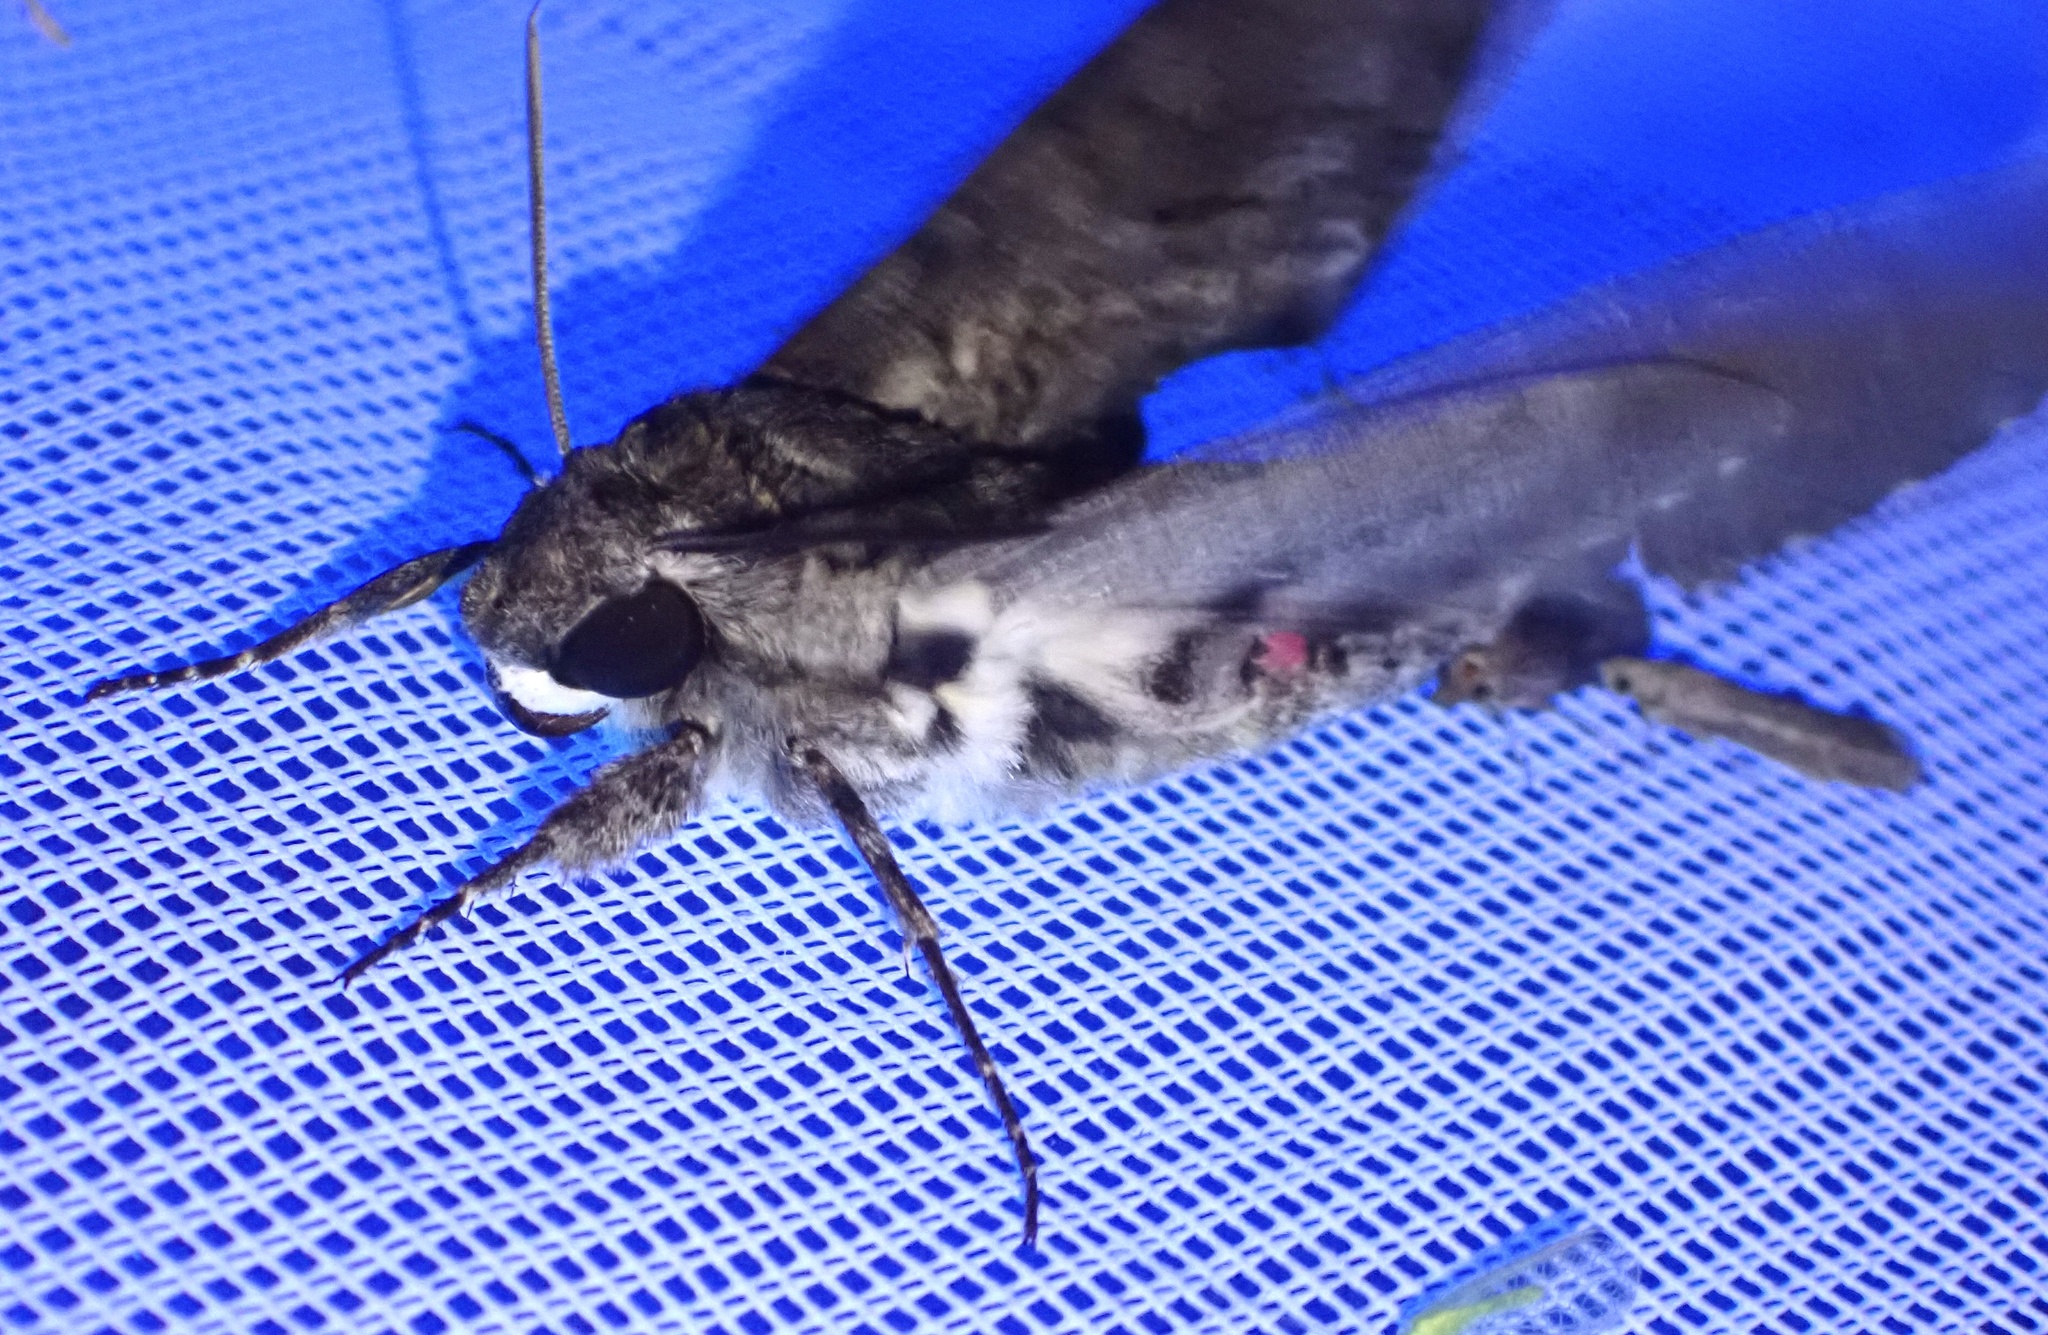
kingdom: Animalia
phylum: Arthropoda
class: Insecta
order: Lepidoptera
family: Sphingidae
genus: Agrius
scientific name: Agrius cingulata
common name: Pink-spotted hawkmoth
